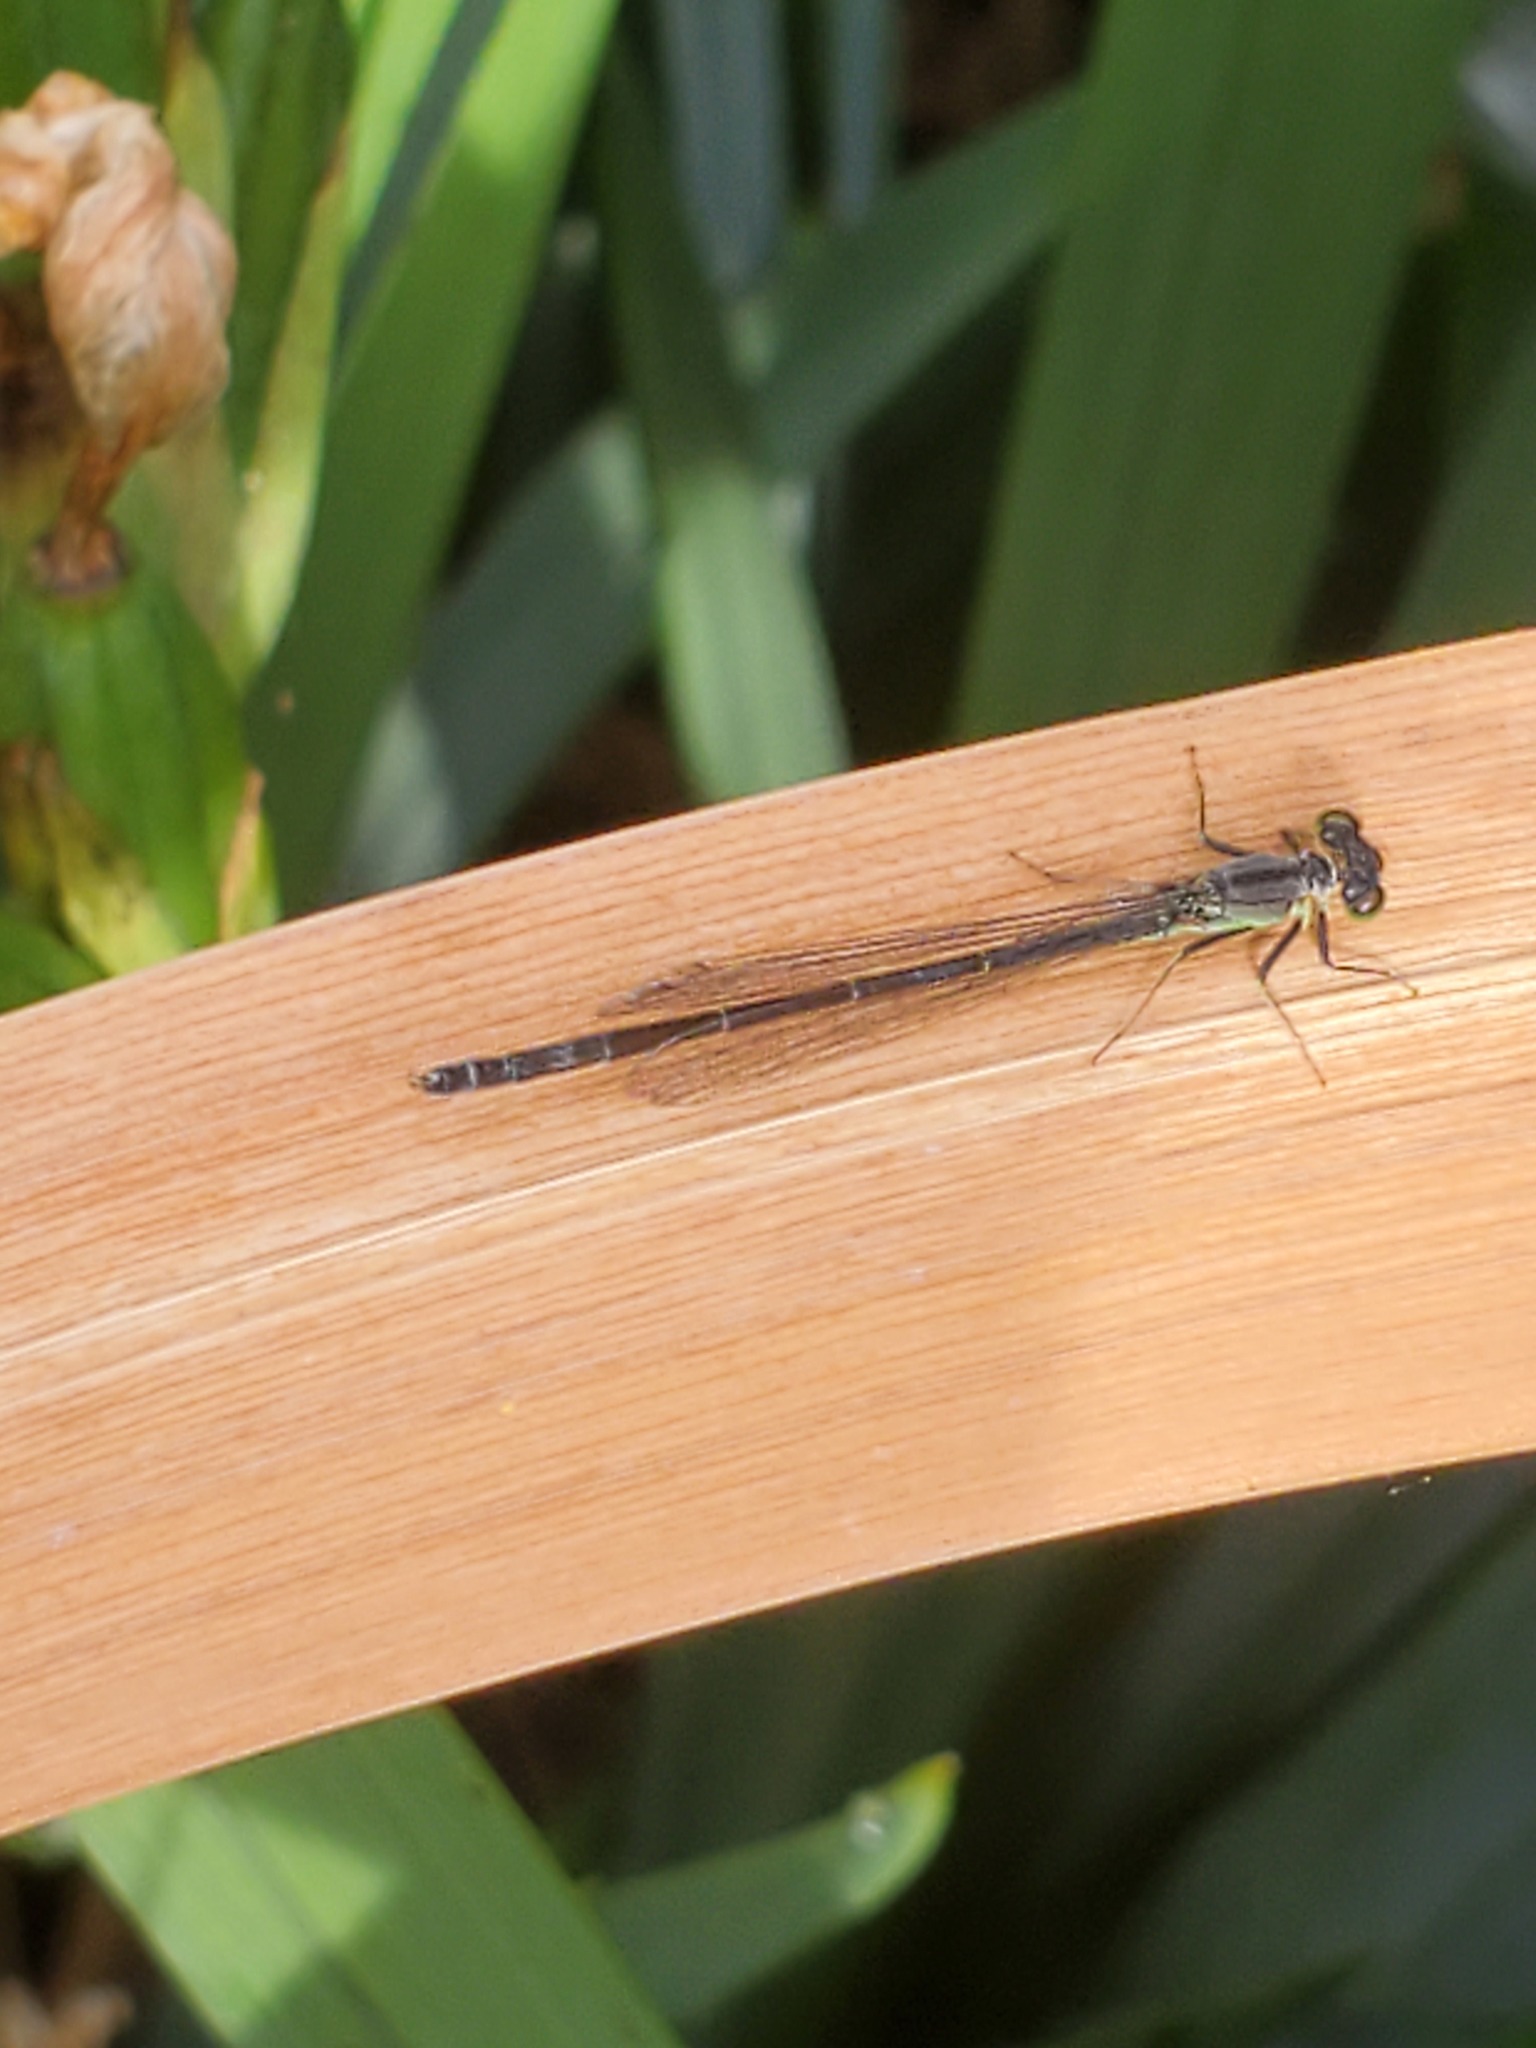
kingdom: Animalia
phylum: Arthropoda
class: Insecta
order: Odonata
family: Coenagrionidae
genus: Ischnura
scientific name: Ischnura cervula
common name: Pacific forktail
